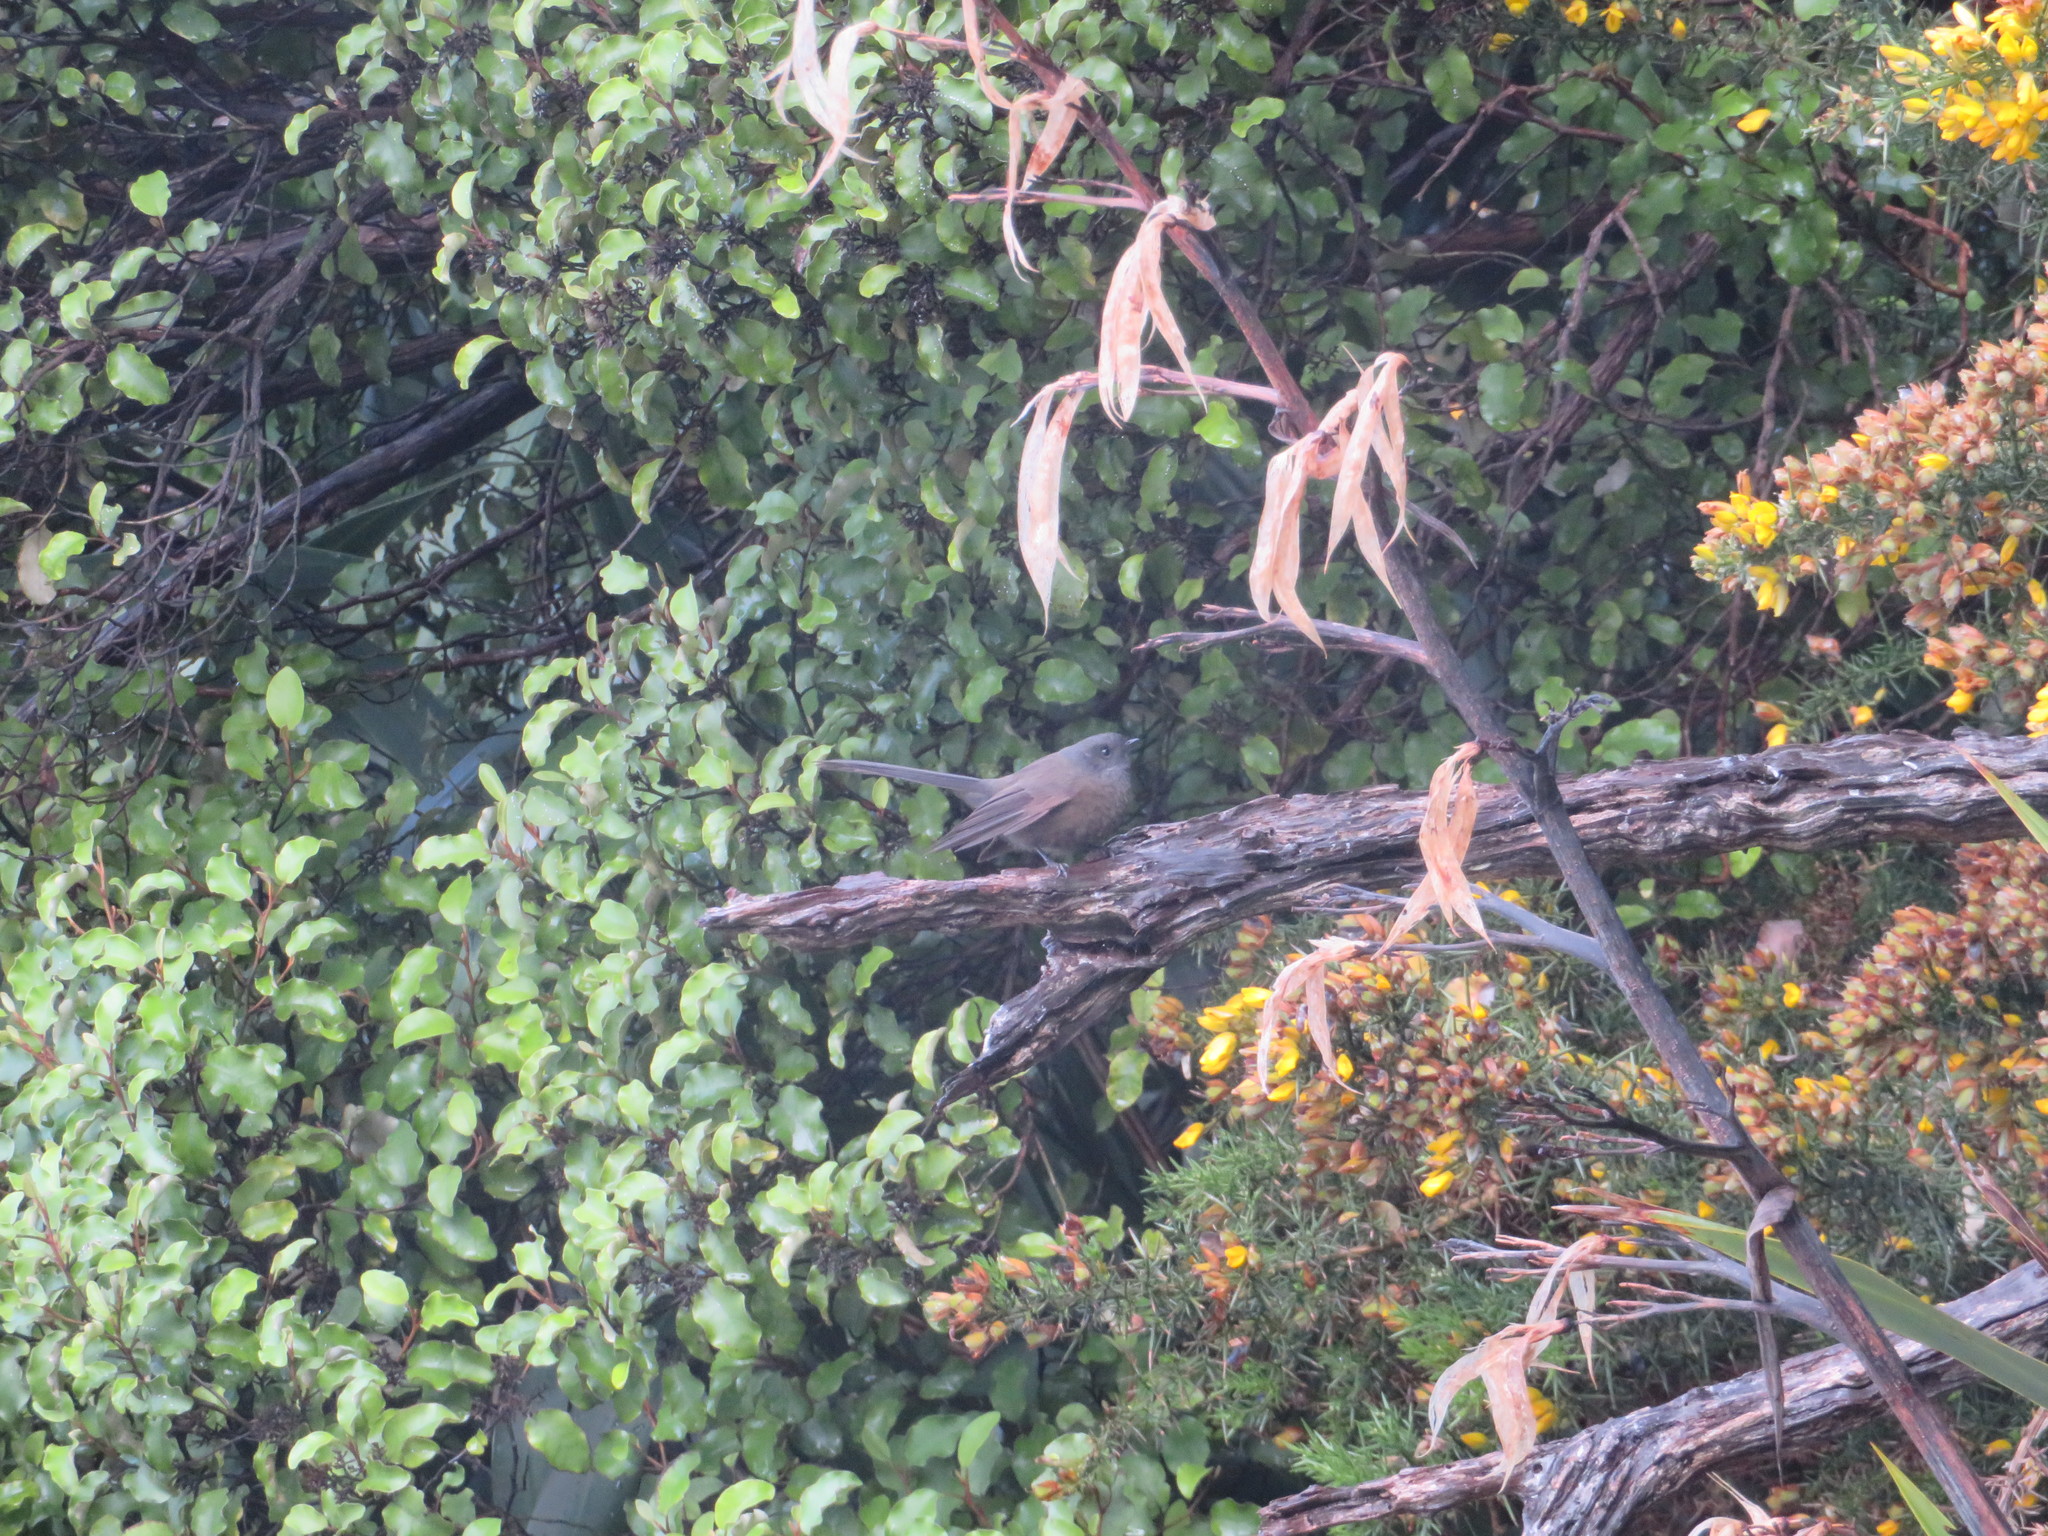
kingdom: Animalia
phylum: Chordata
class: Aves
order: Passeriformes
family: Rhipiduridae
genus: Rhipidura
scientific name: Rhipidura fuliginosa
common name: New zealand fantail
